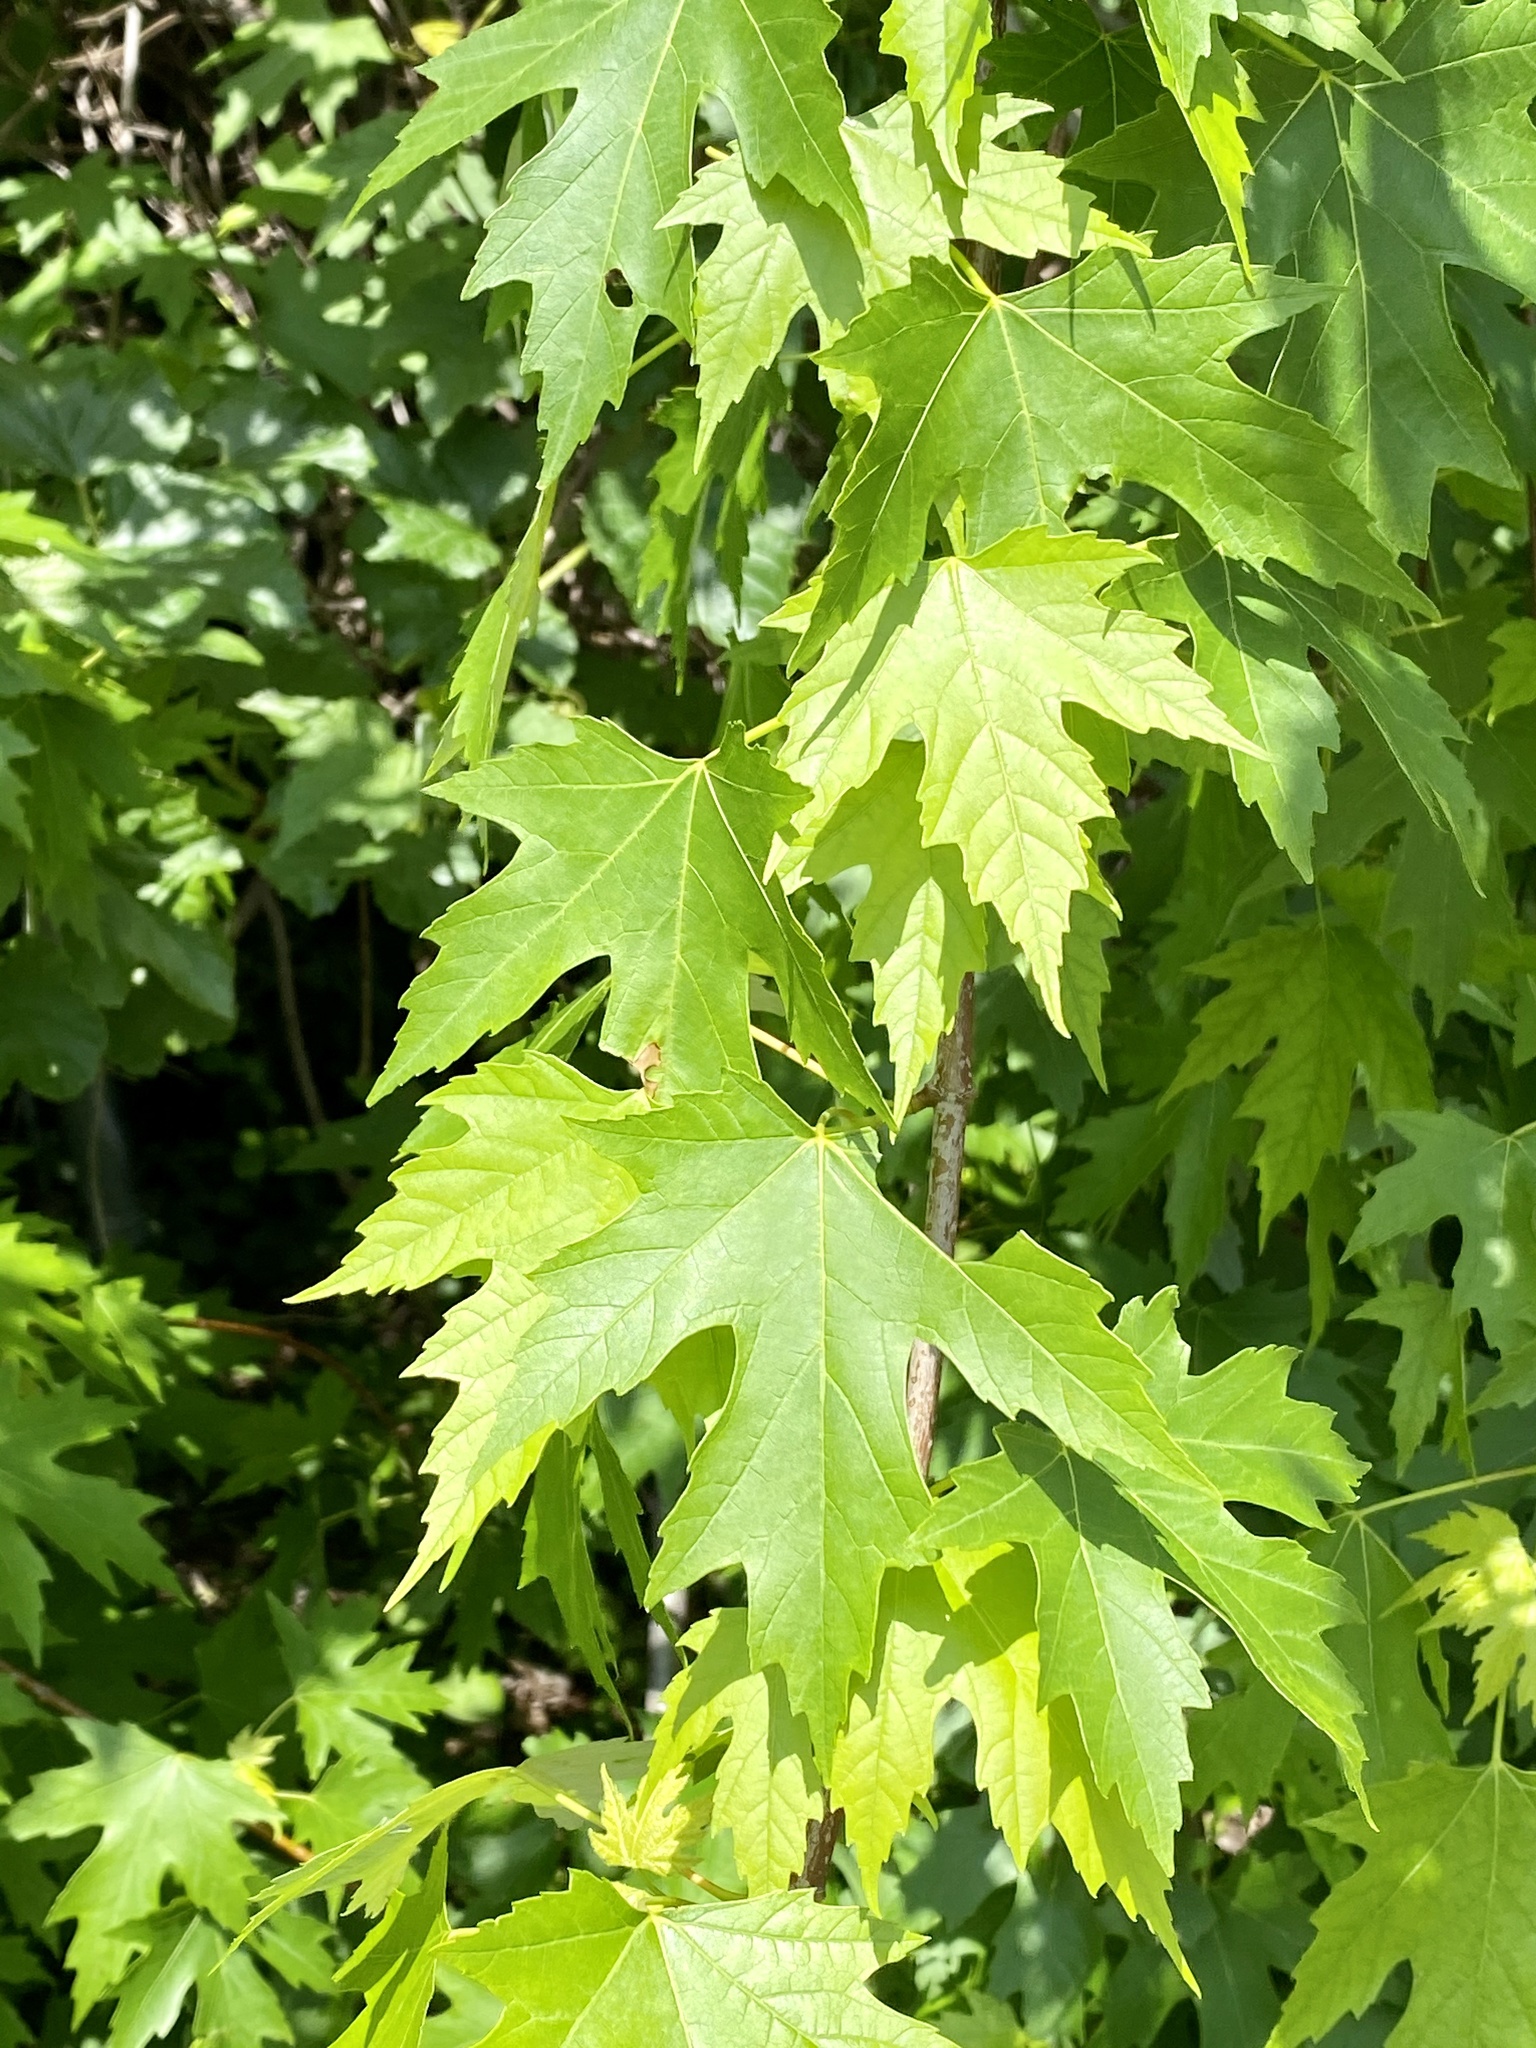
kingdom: Plantae
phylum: Tracheophyta
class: Magnoliopsida
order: Sapindales
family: Sapindaceae
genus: Acer
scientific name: Acer saccharinum
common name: Silver maple
